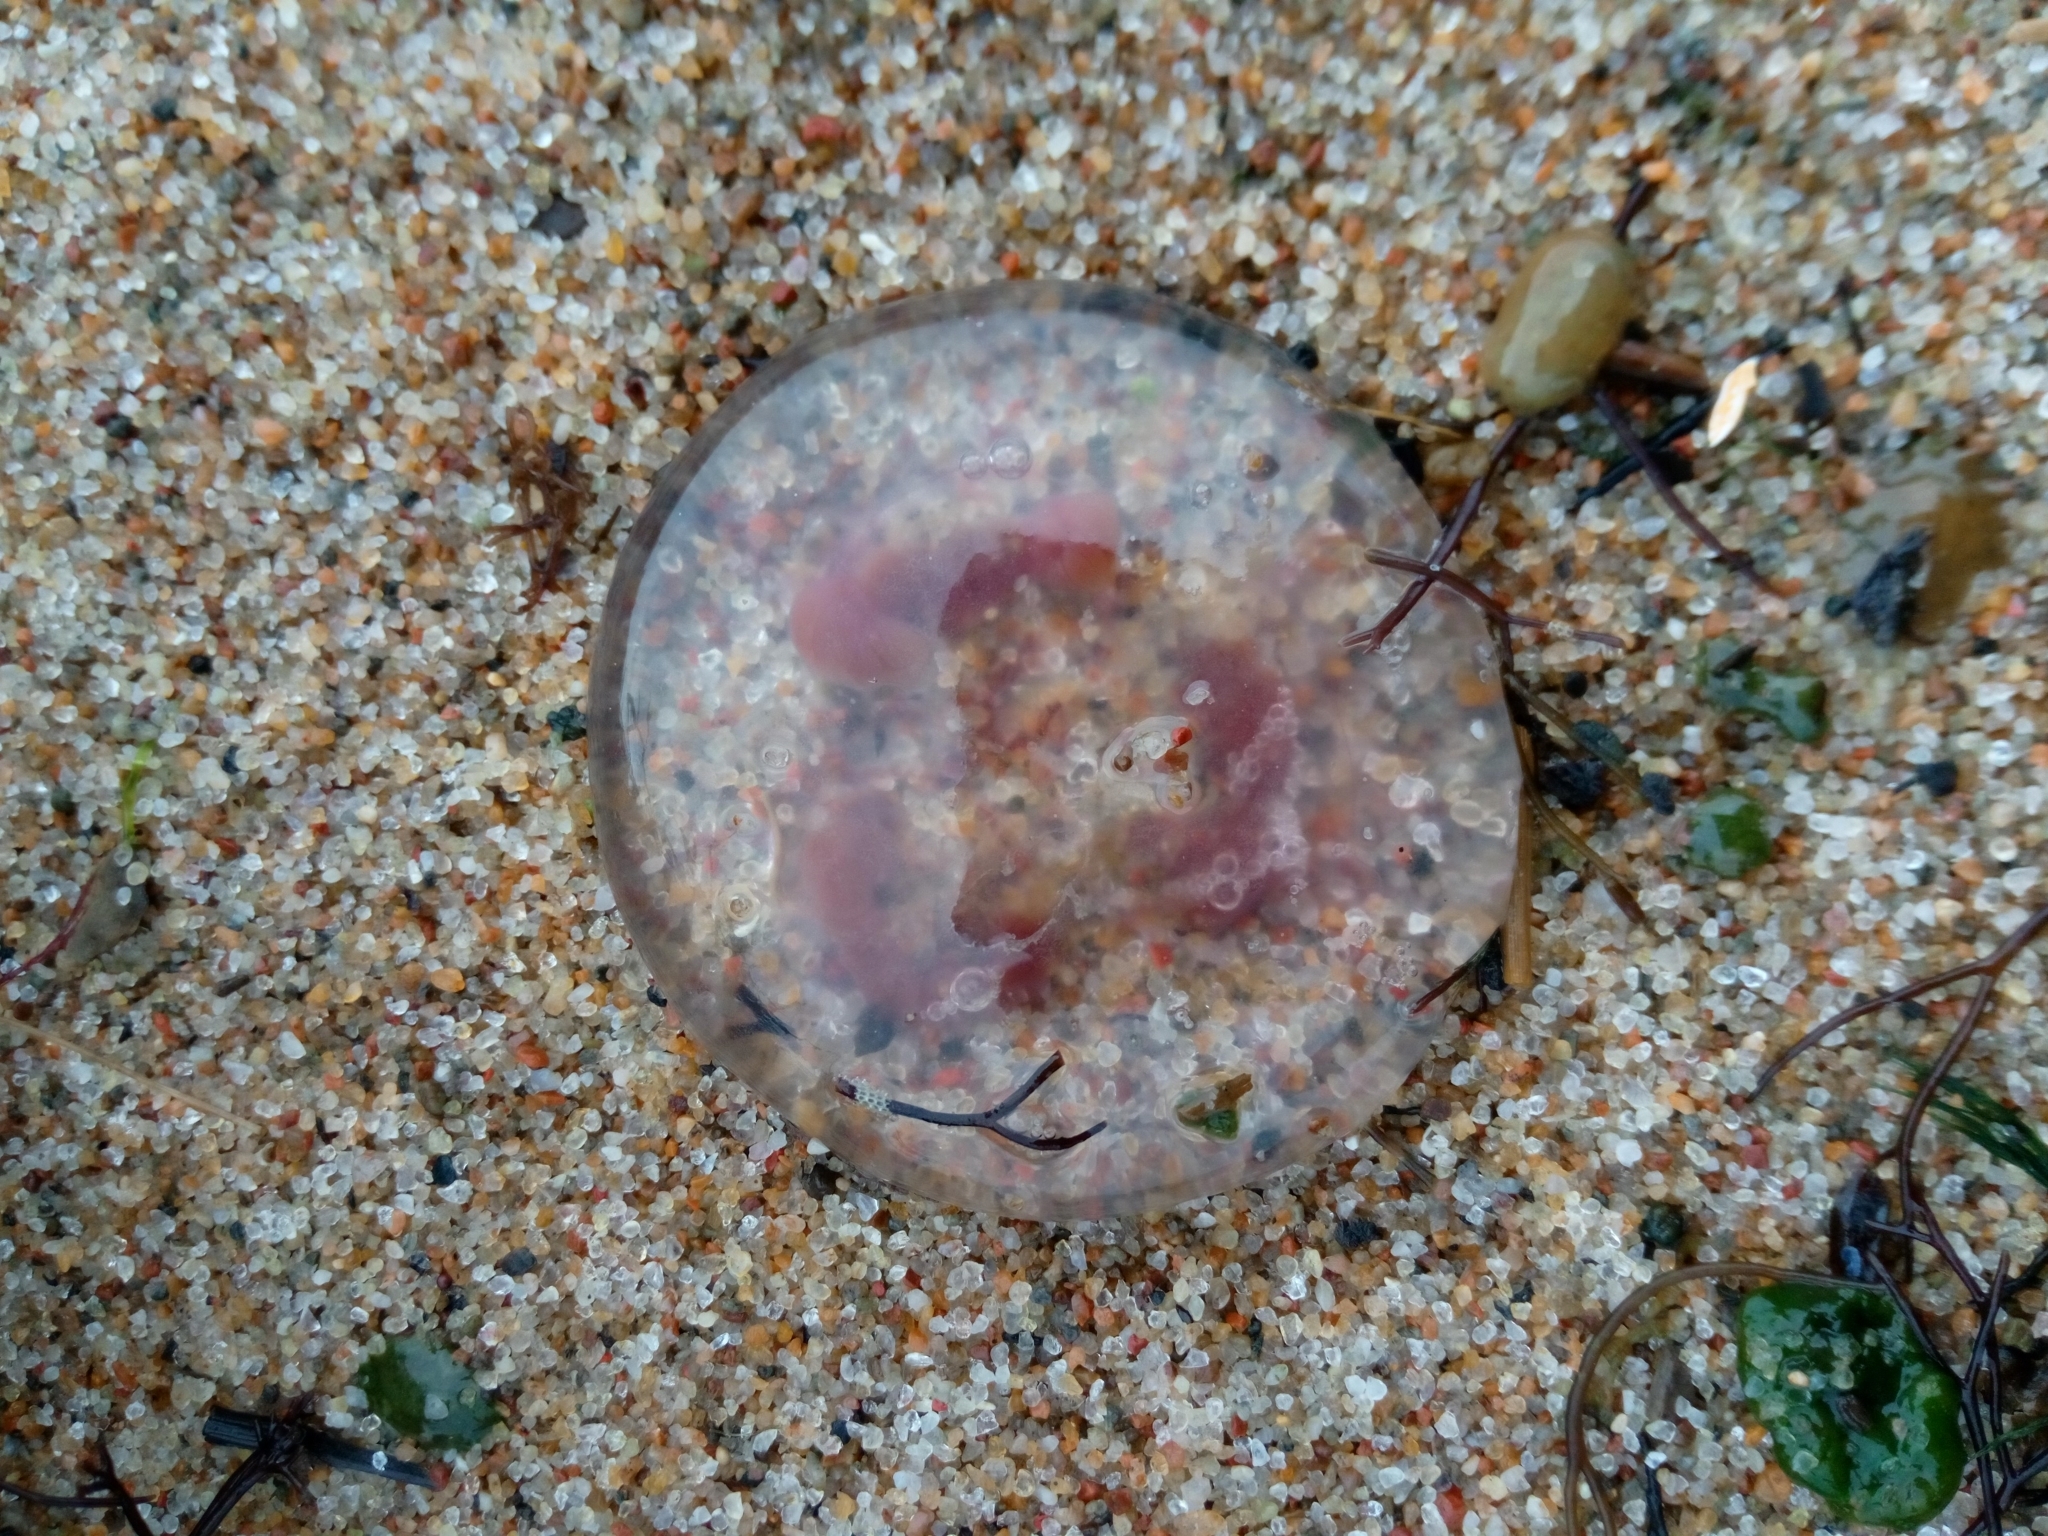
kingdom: Animalia
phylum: Cnidaria
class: Scyphozoa
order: Semaeostomeae
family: Ulmaridae
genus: Aurelia
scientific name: Aurelia aurita
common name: Moon jellyfish
